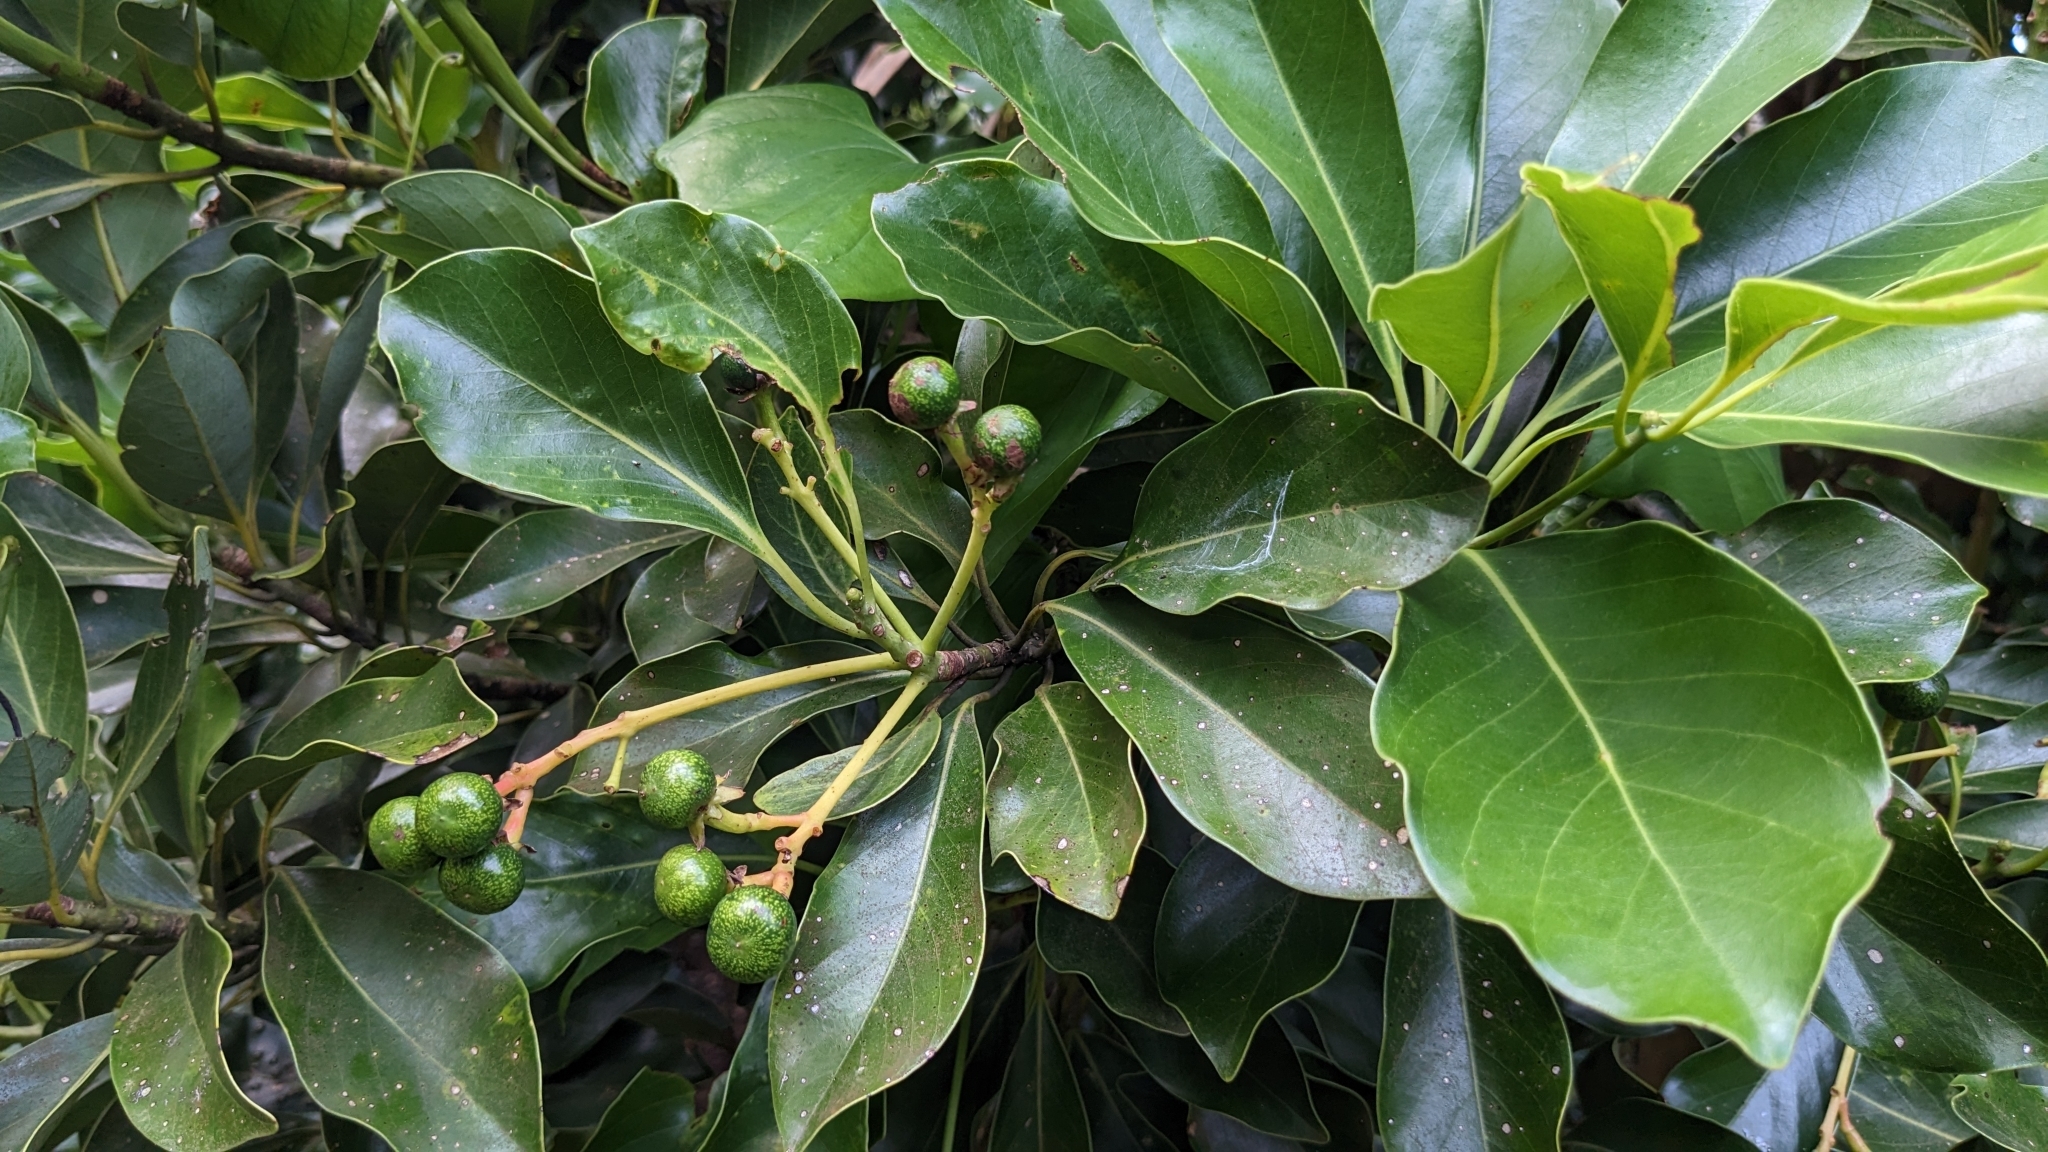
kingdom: Plantae
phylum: Tracheophyta
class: Magnoliopsida
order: Laurales
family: Lauraceae
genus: Machilus
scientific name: Machilus thunbergii
